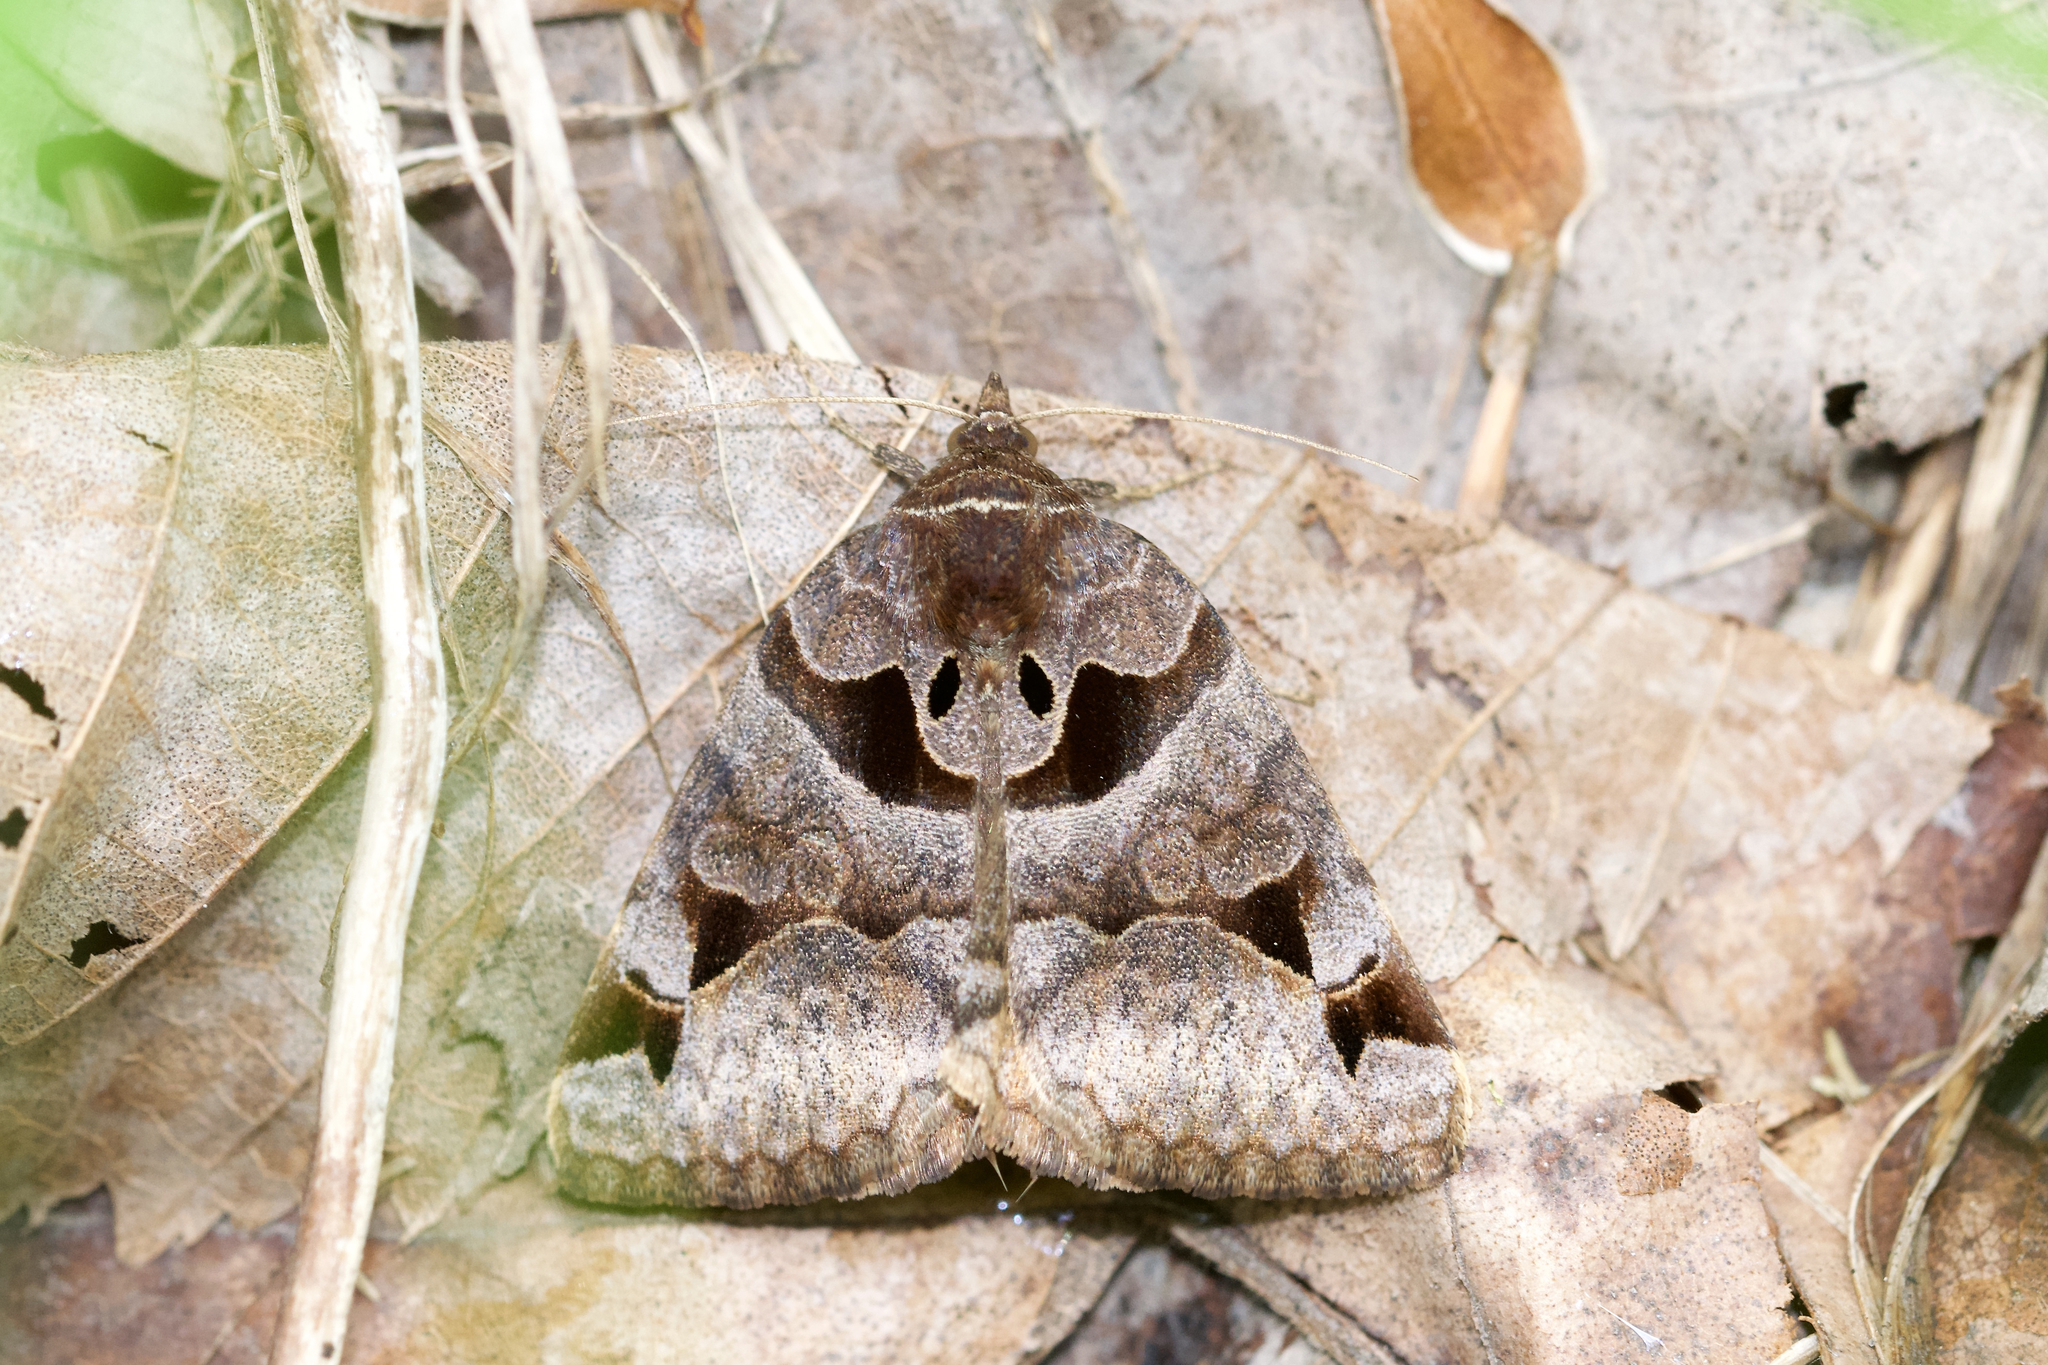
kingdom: Animalia
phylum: Arthropoda
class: Insecta
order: Lepidoptera
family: Erebidae
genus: Euclidia
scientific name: Euclidia cuspidea
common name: Toothed somberwing
